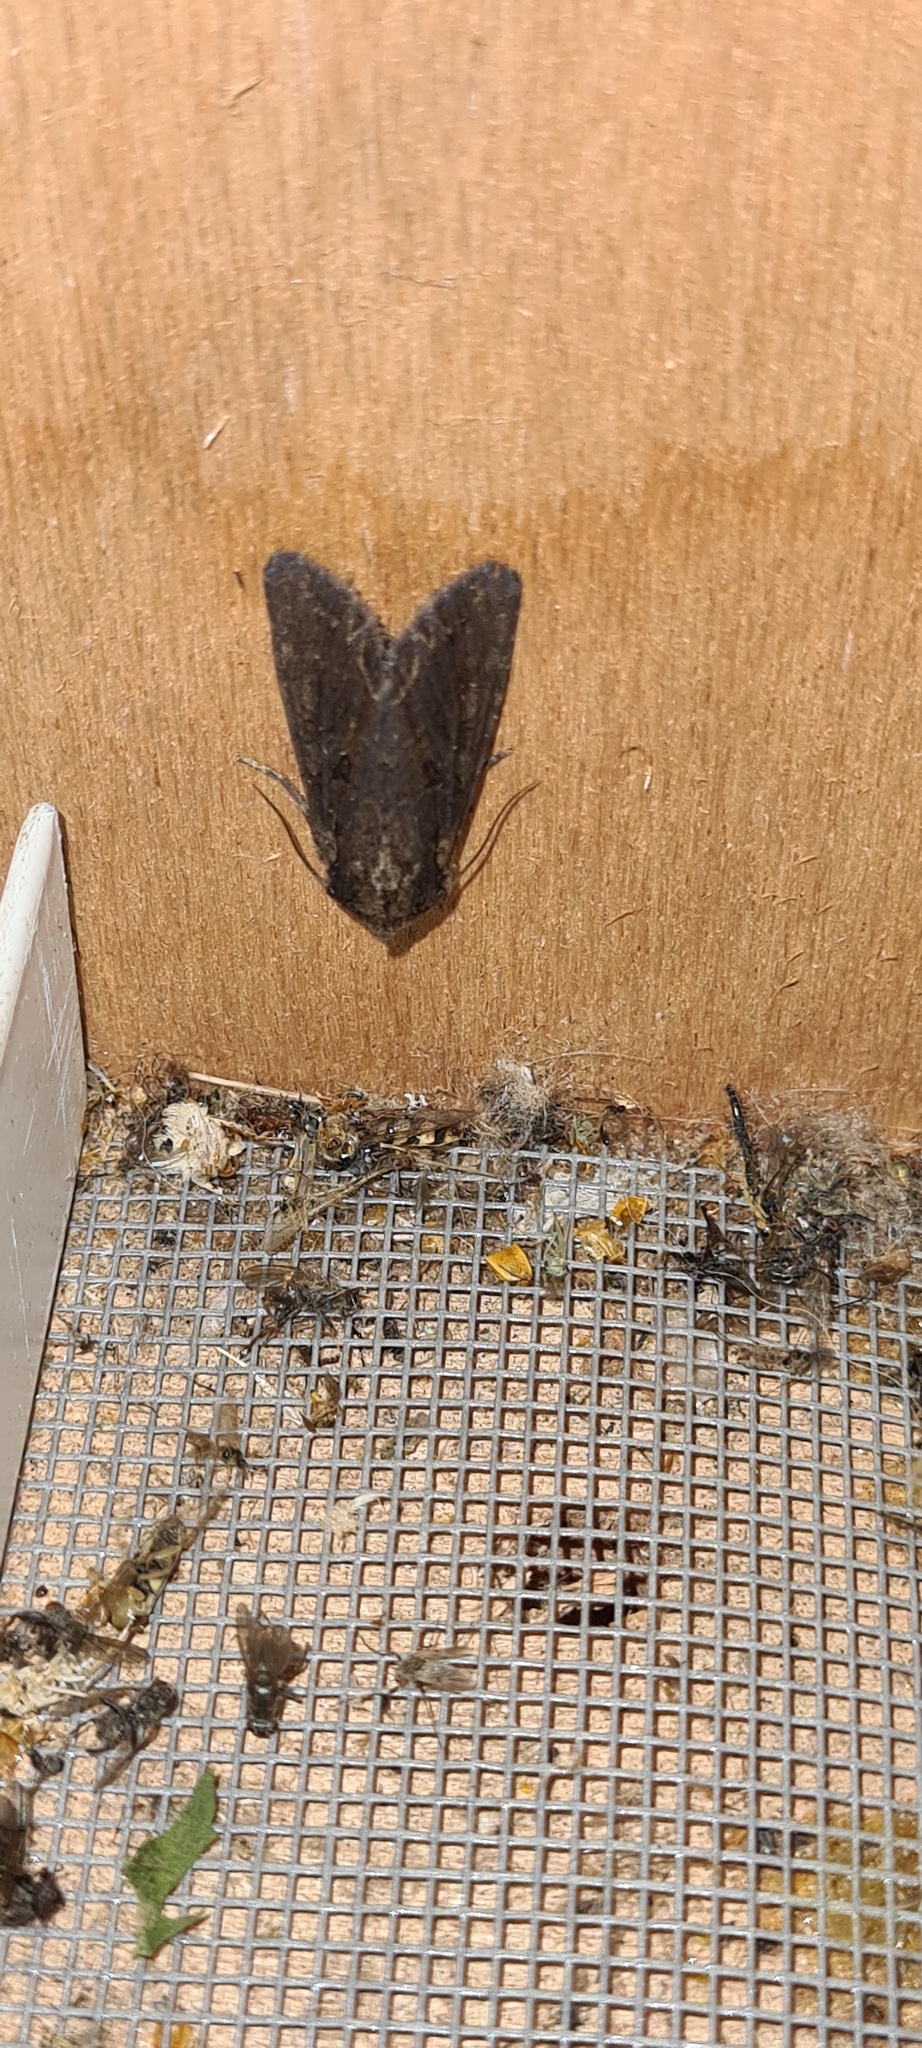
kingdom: Animalia
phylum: Arthropoda
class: Insecta
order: Lepidoptera
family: Noctuidae
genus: Lacanobia
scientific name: Lacanobia suasa
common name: Dog's tooth
